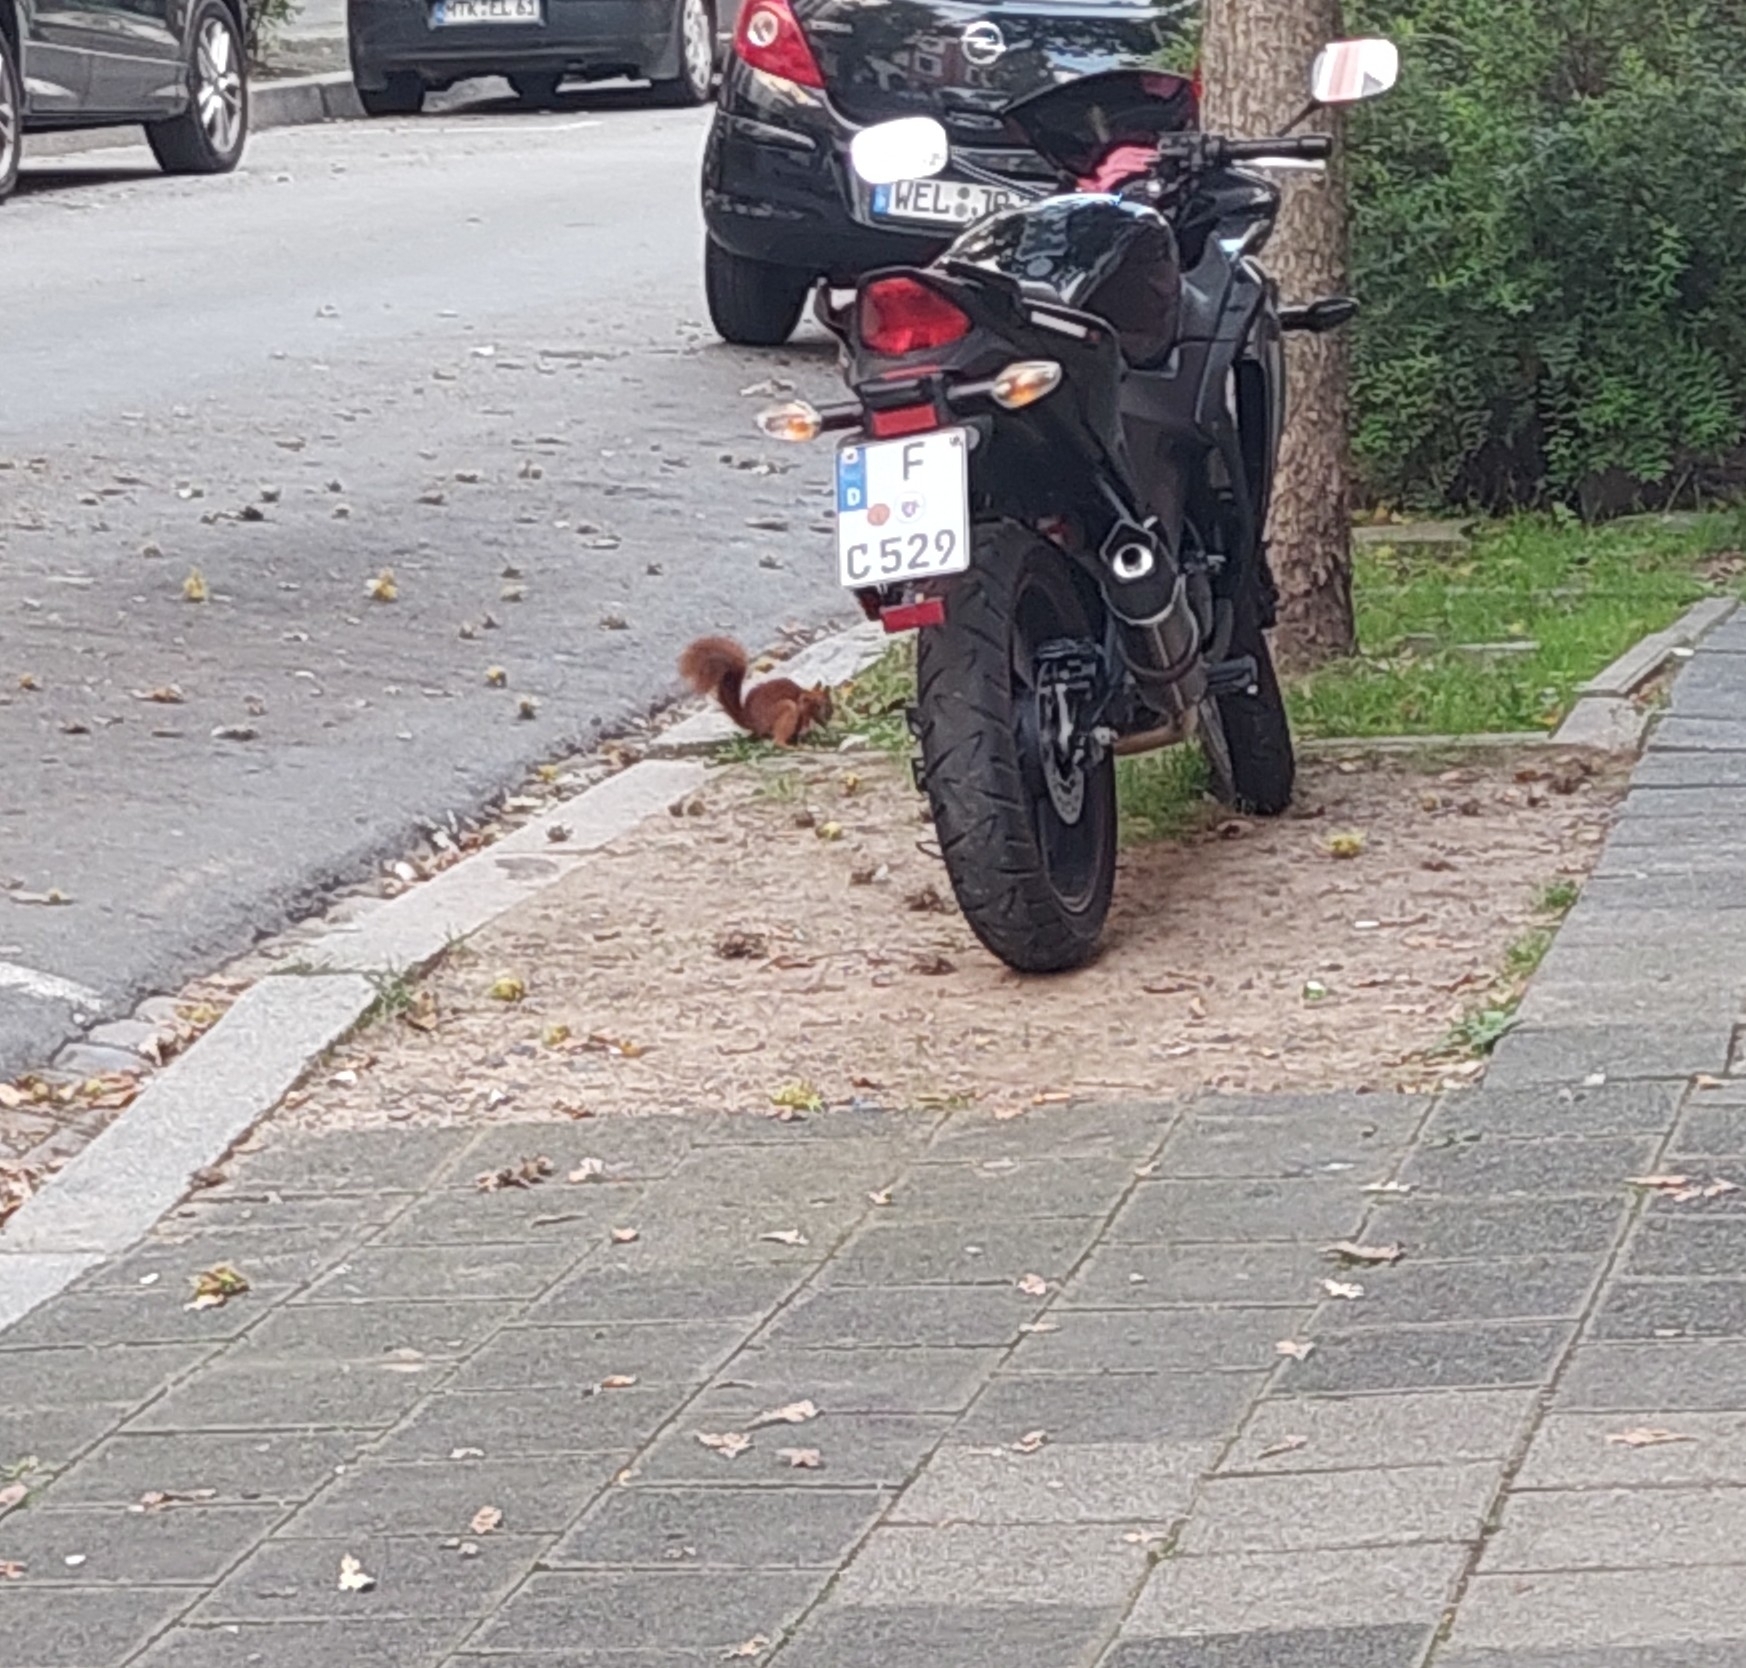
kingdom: Animalia
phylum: Chordata
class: Mammalia
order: Rodentia
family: Sciuridae
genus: Sciurus
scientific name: Sciurus vulgaris
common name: Eurasian red squirrel
